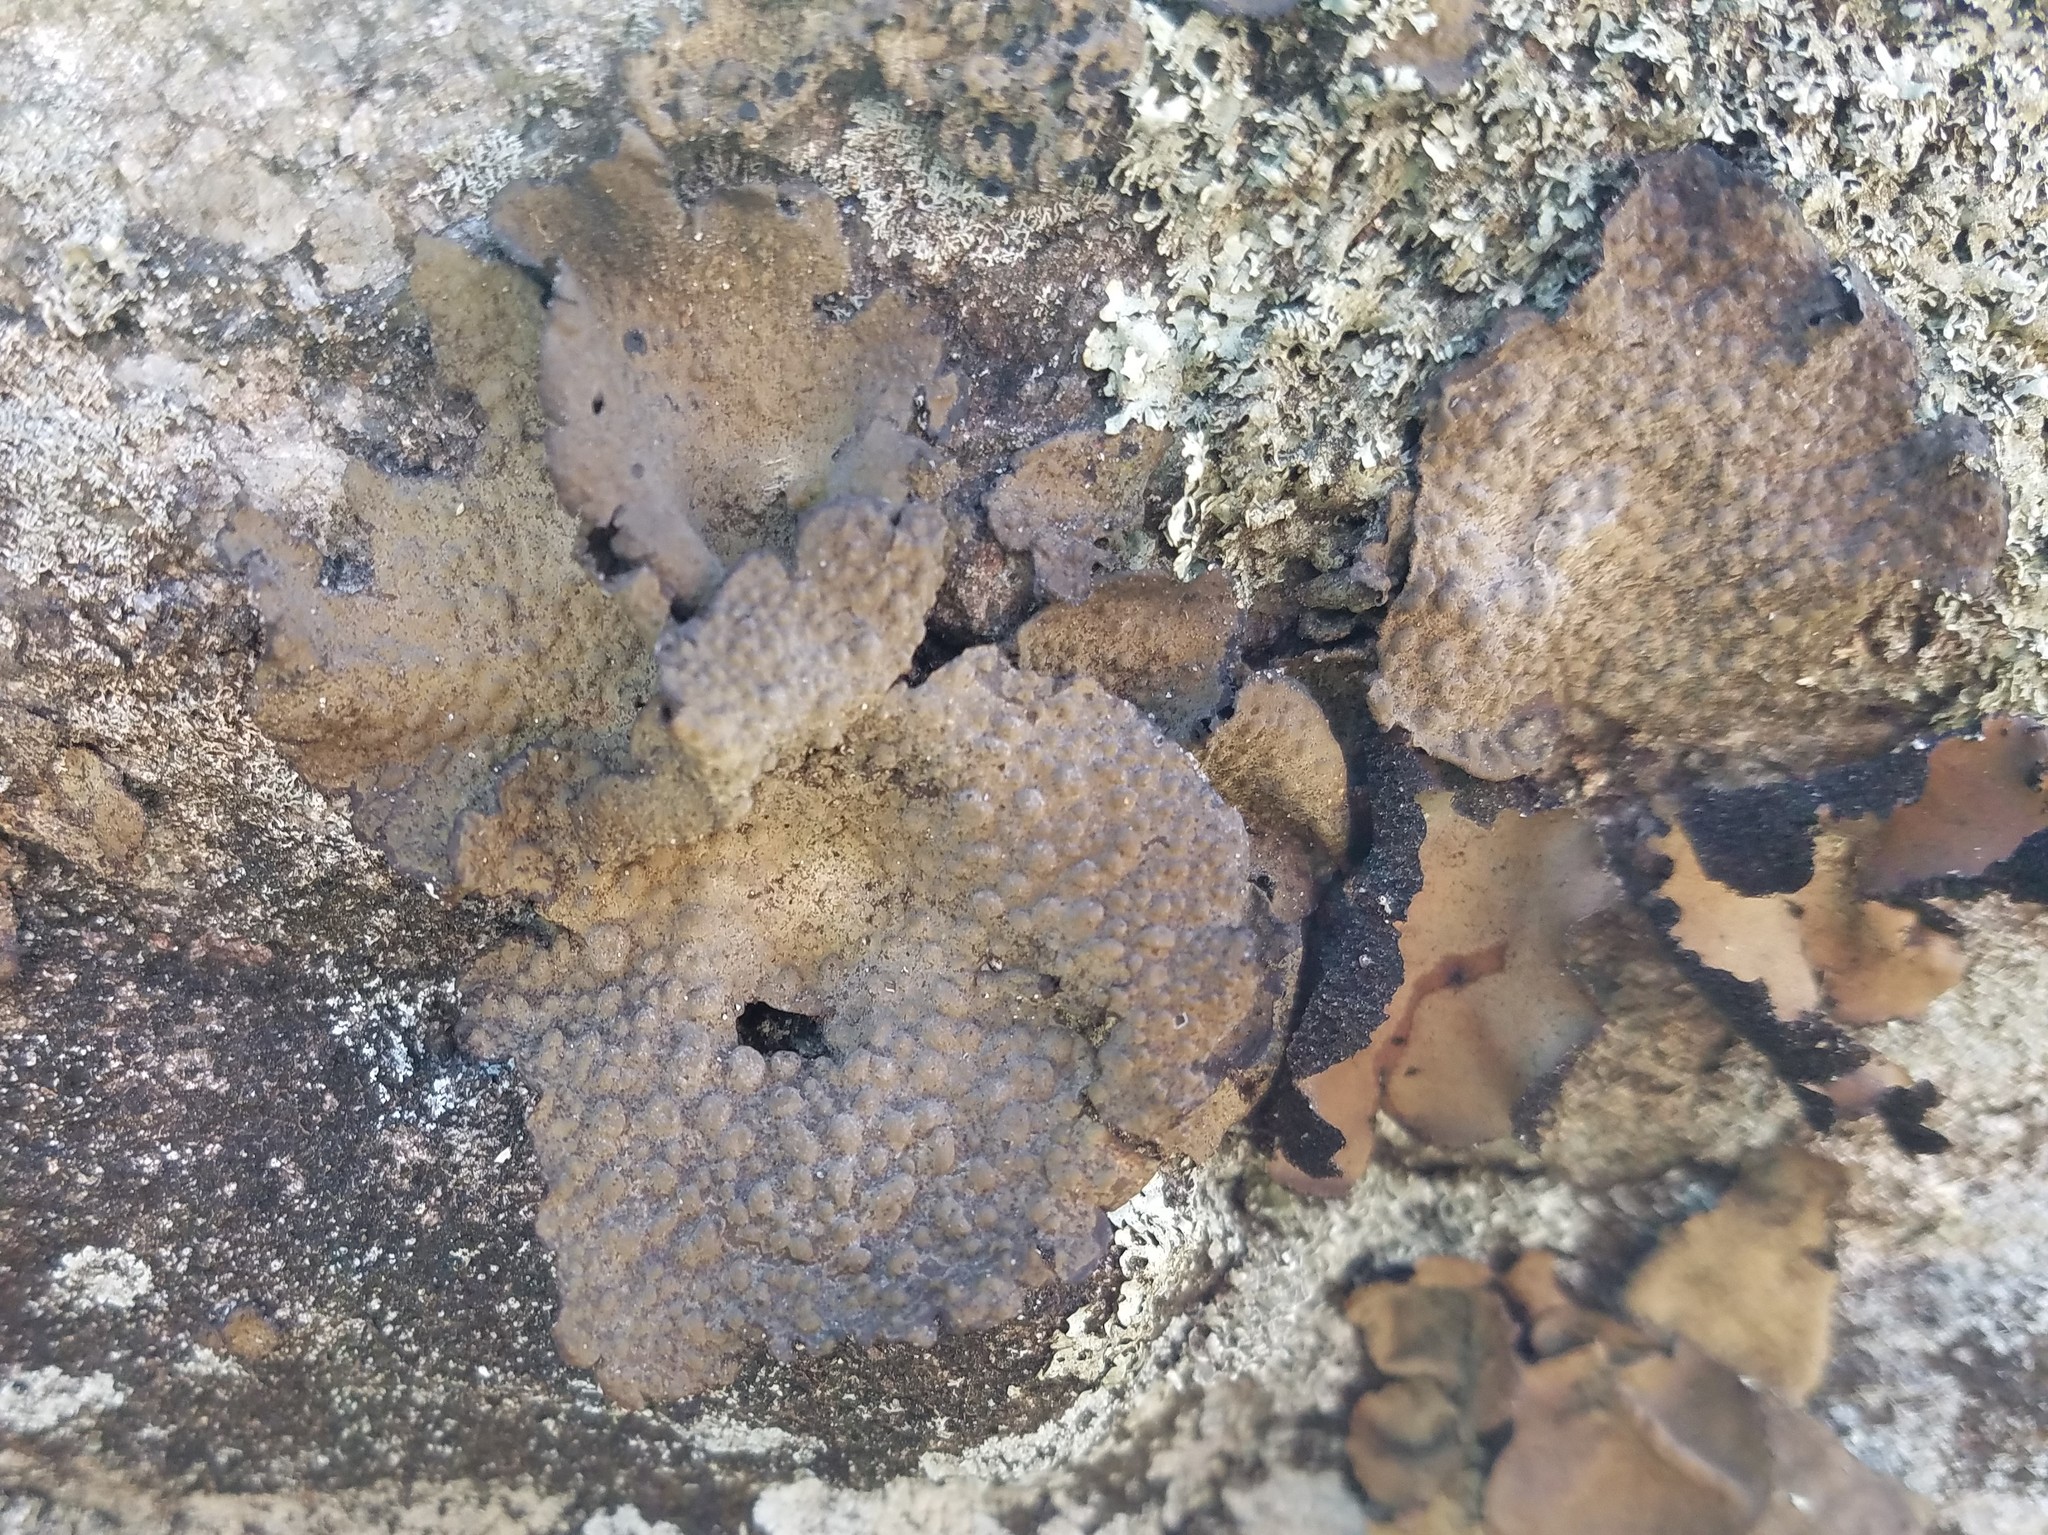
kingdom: Fungi
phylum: Ascomycota
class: Lecanoromycetes
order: Umbilicariales
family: Umbilicariaceae
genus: Lasallia
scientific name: Lasallia papulosa
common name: Common toadskin lichen
